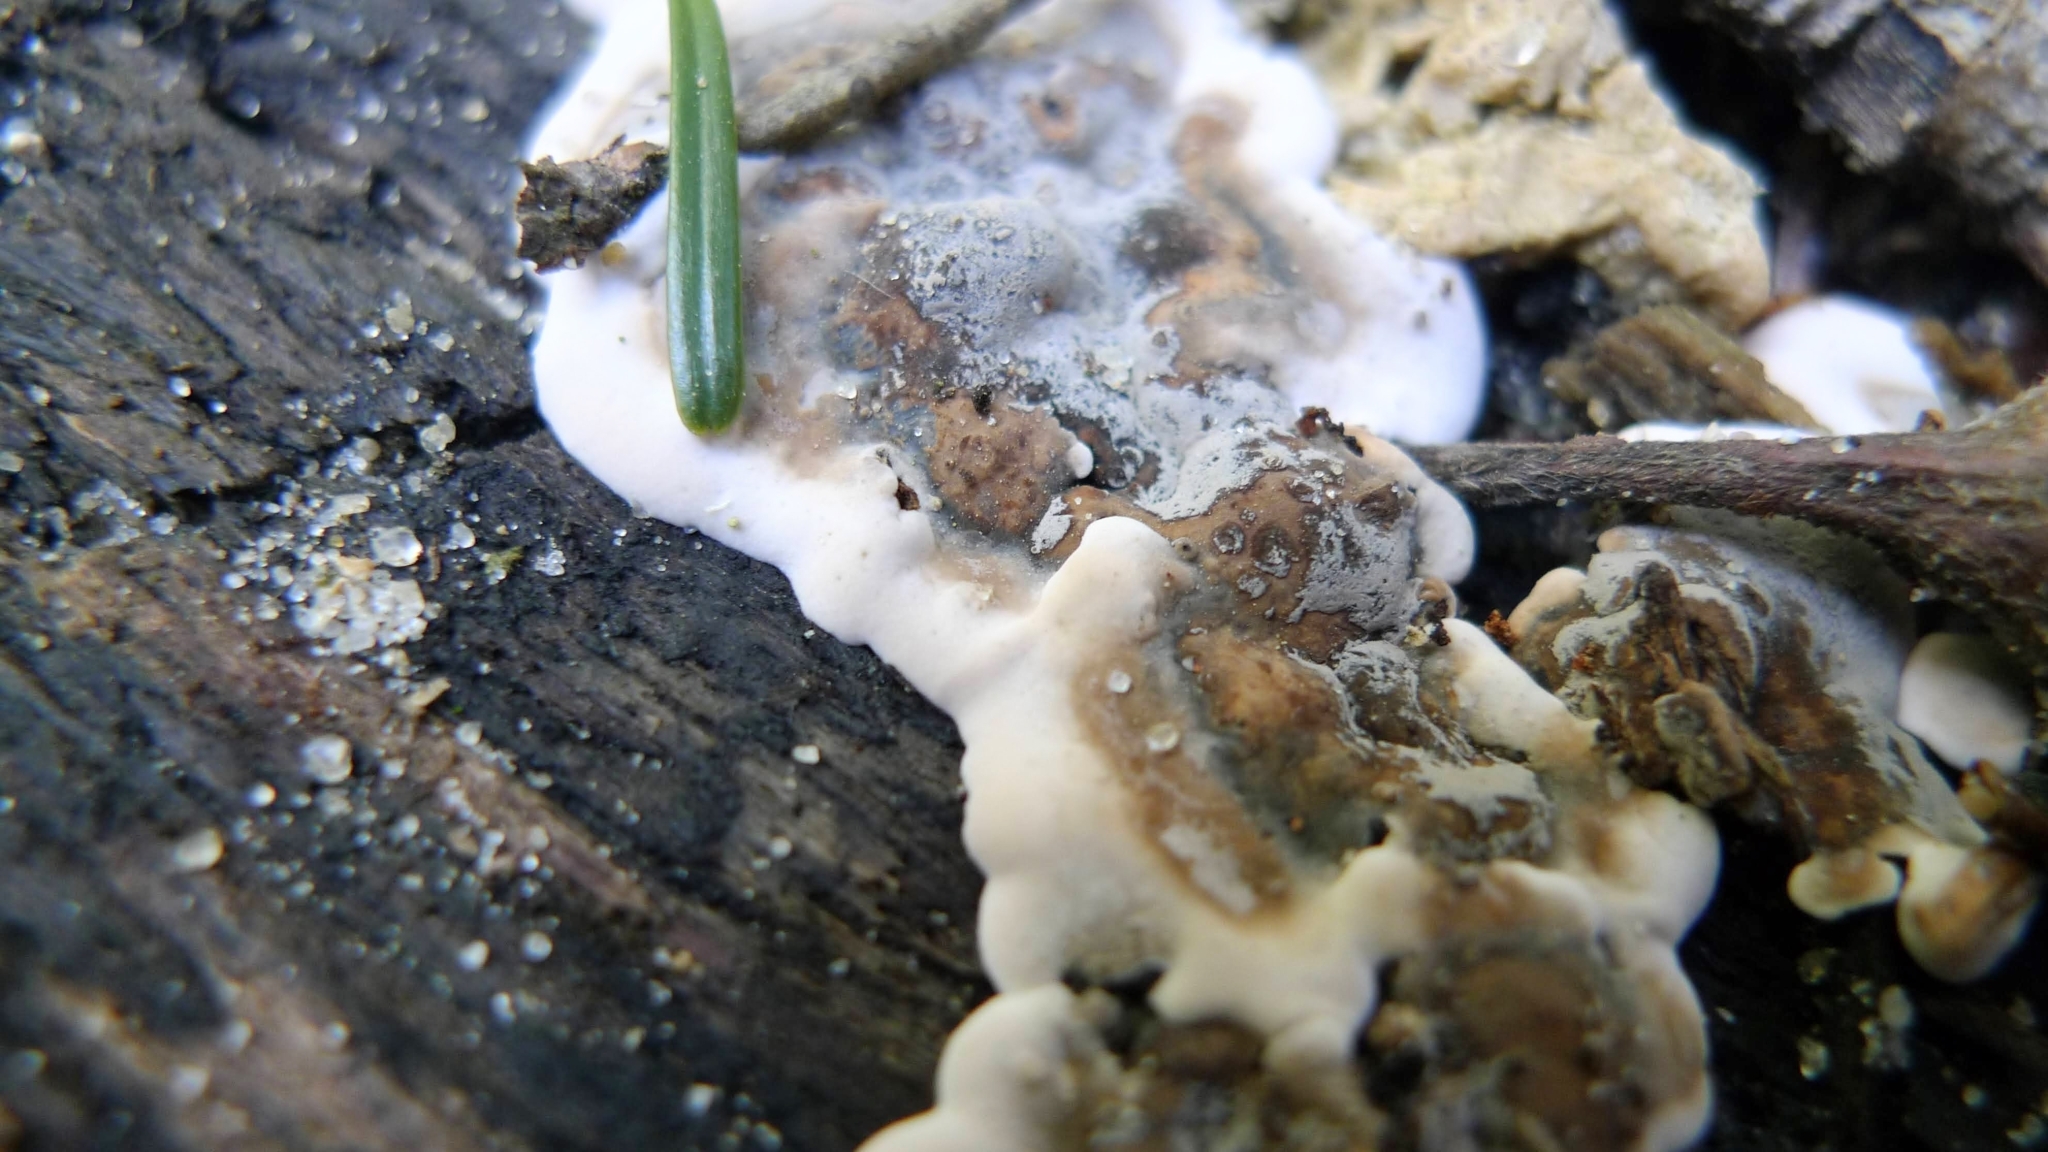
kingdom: Fungi
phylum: Ascomycota
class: Sordariomycetes
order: Xylariales
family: Xylariaceae
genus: Kretzschmaria
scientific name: Kretzschmaria deusta
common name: Brittle cinder
